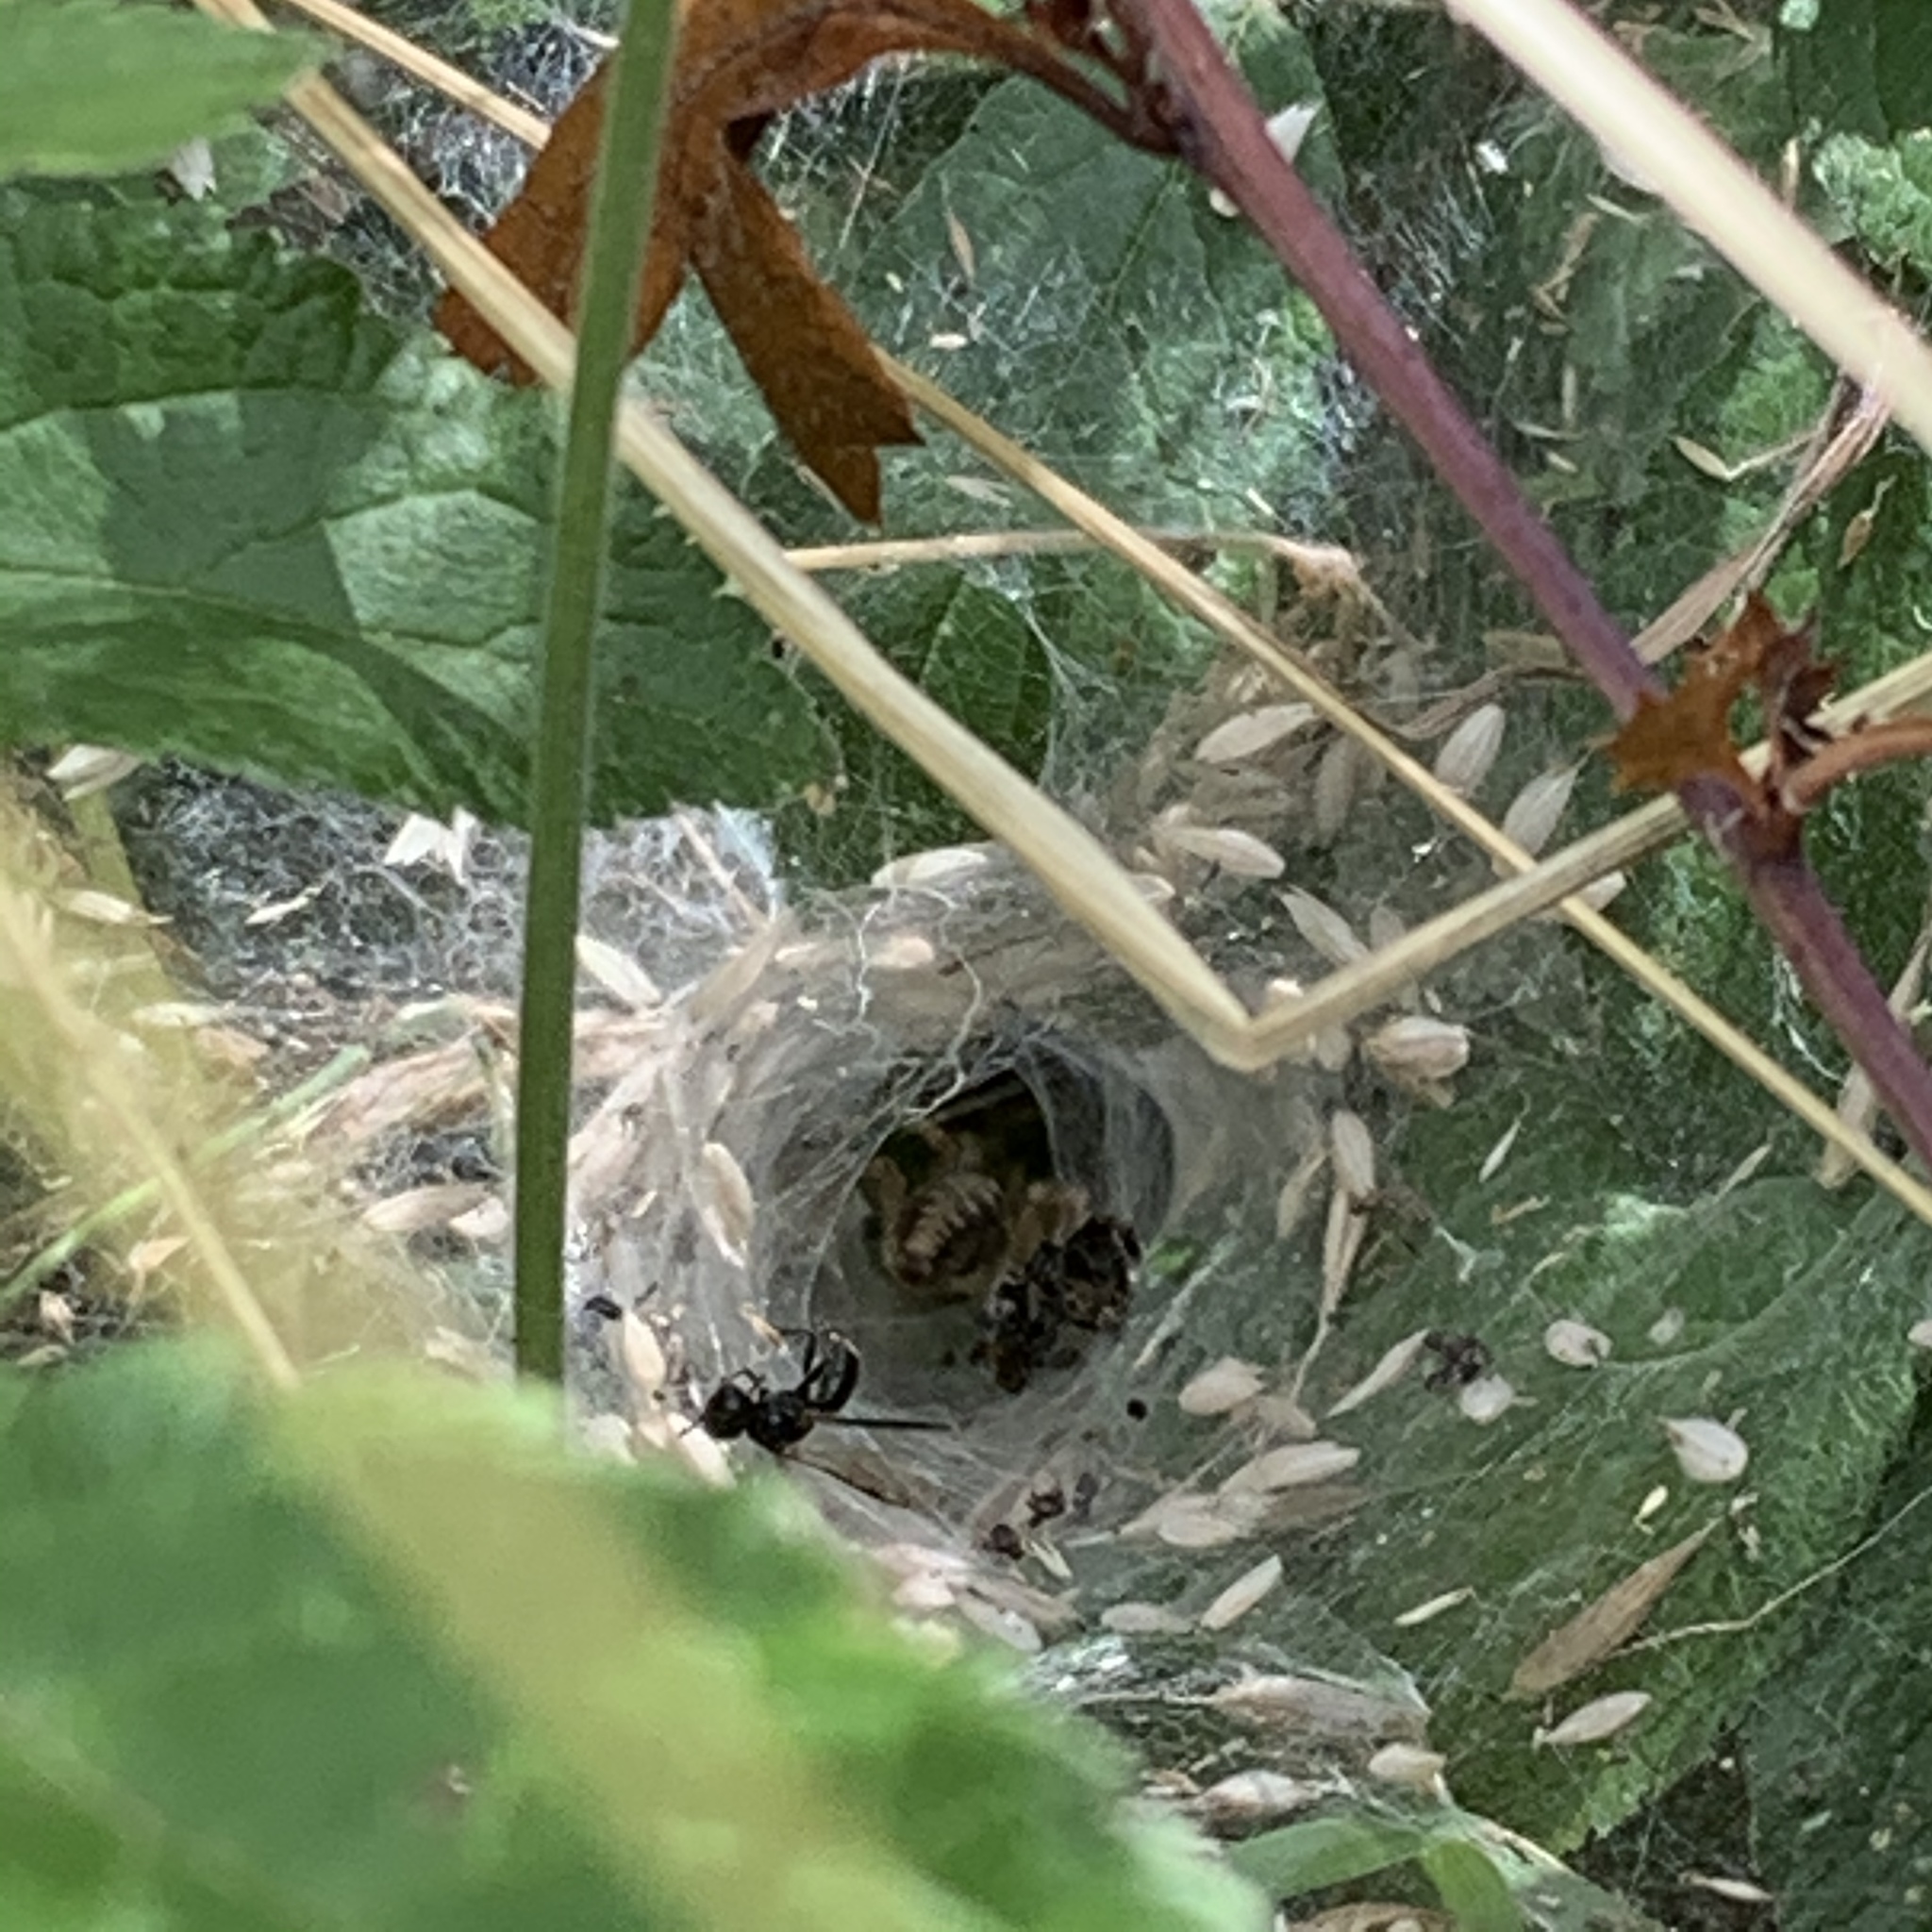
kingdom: Animalia
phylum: Arthropoda
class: Arachnida
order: Araneae
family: Agelenidae
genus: Agelena
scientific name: Agelena labyrinthica
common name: Labyrinth spider
